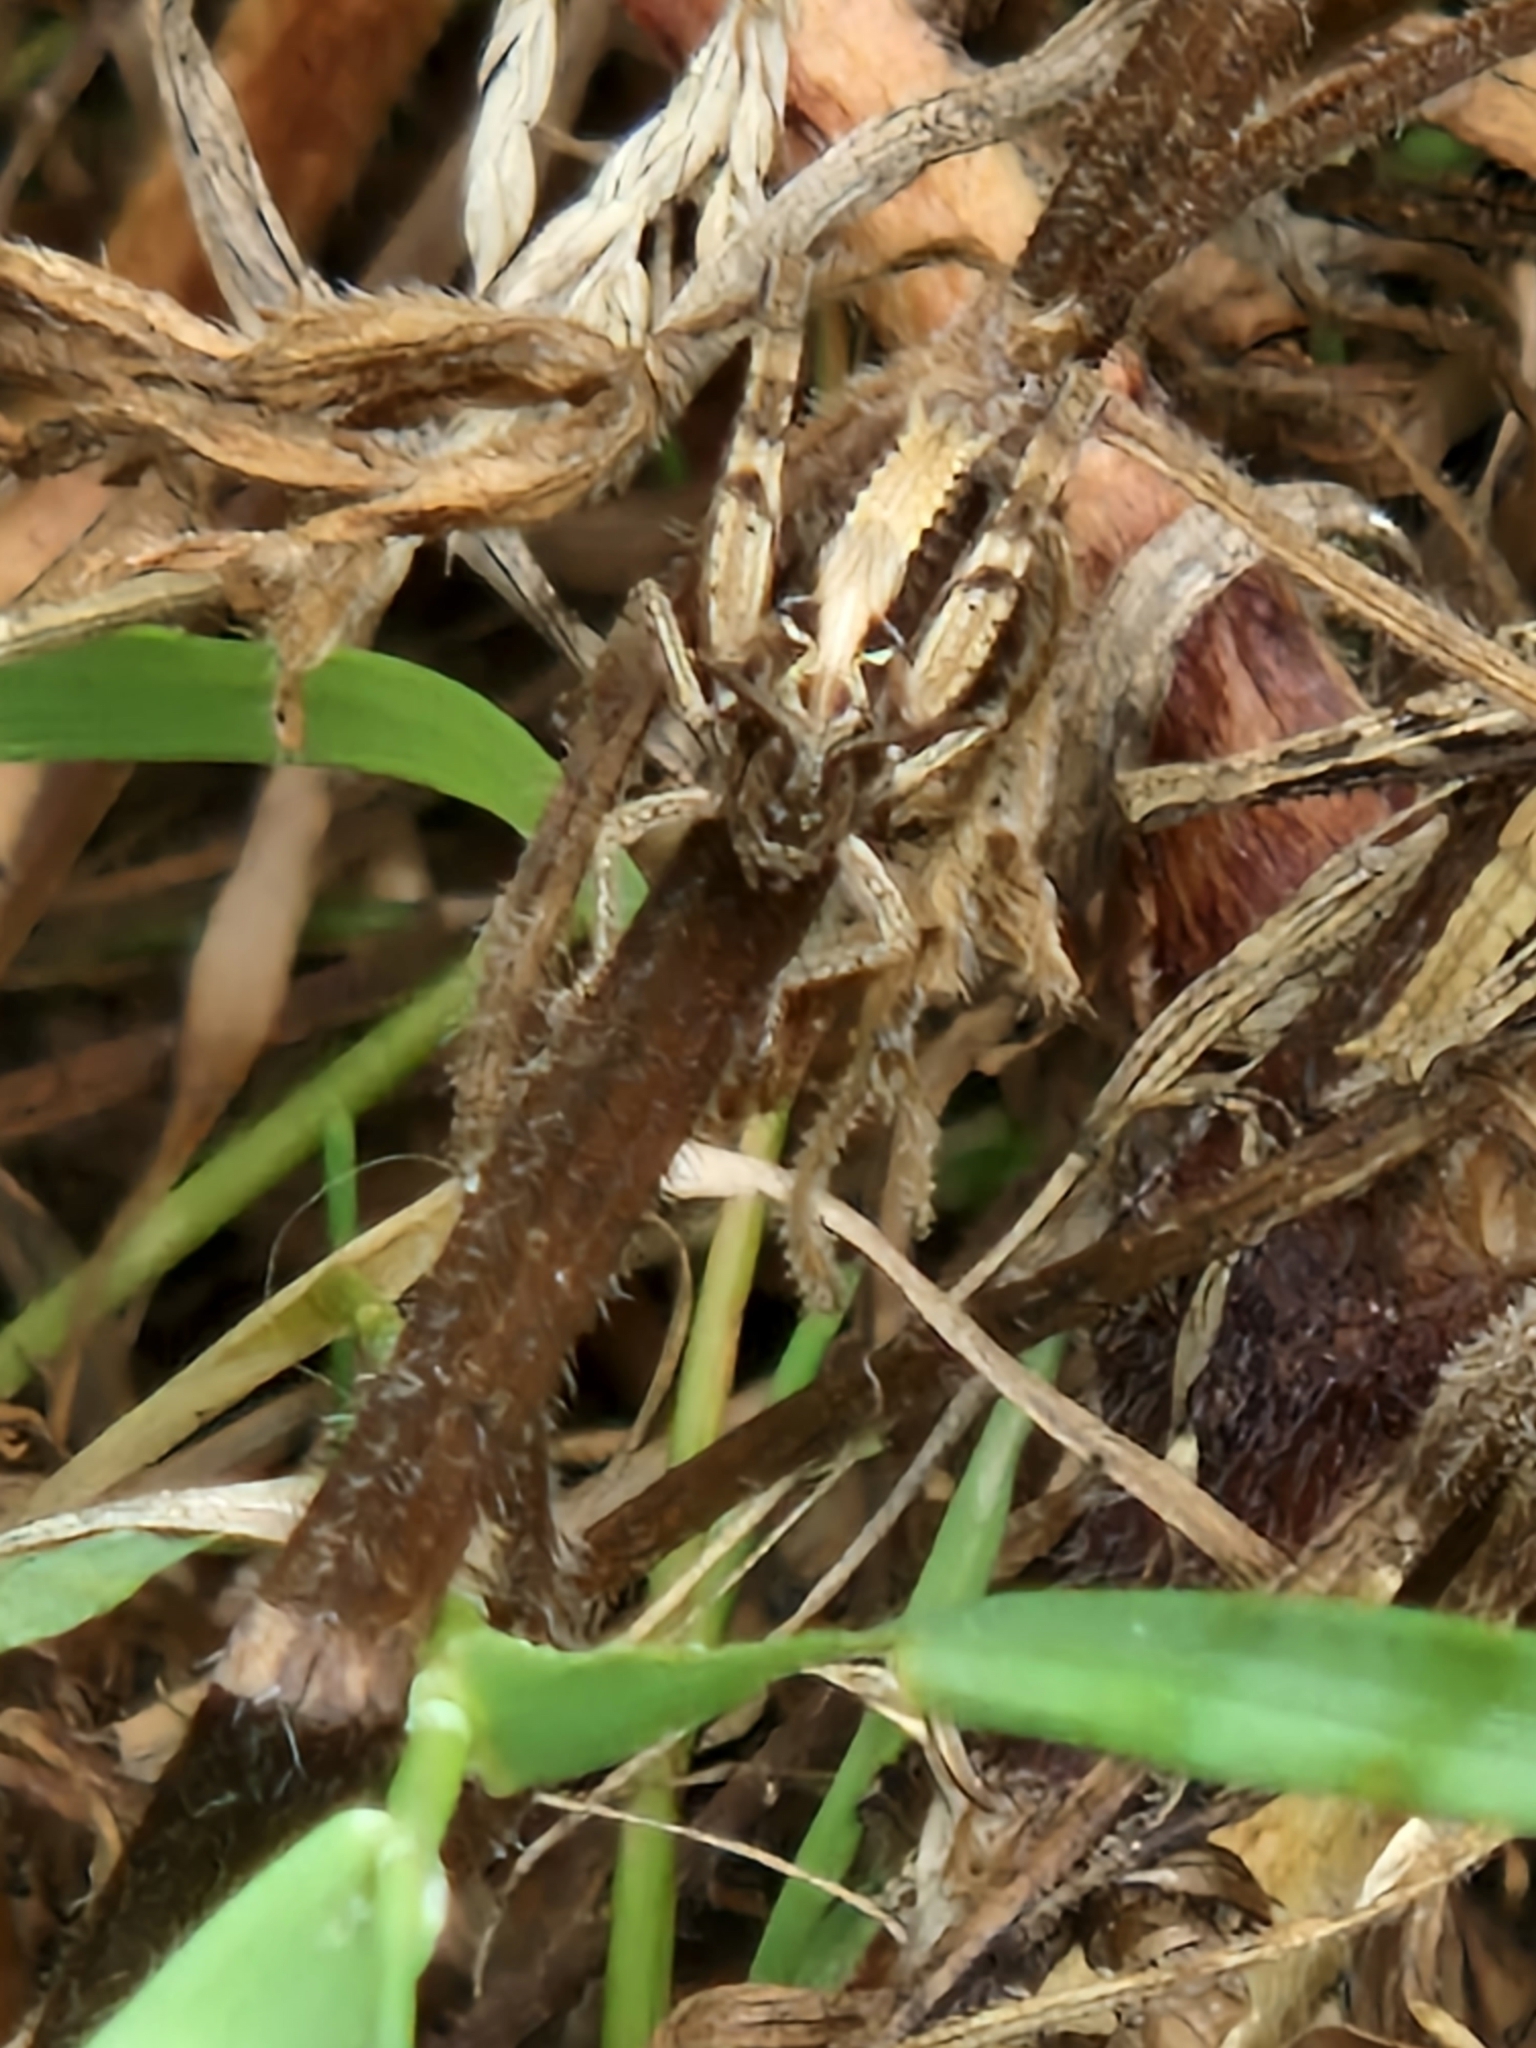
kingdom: Animalia
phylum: Arthropoda
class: Insecta
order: Orthoptera
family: Acrididae
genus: Chorthippus
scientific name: Chorthippus brunneus
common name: Field grasshopper
